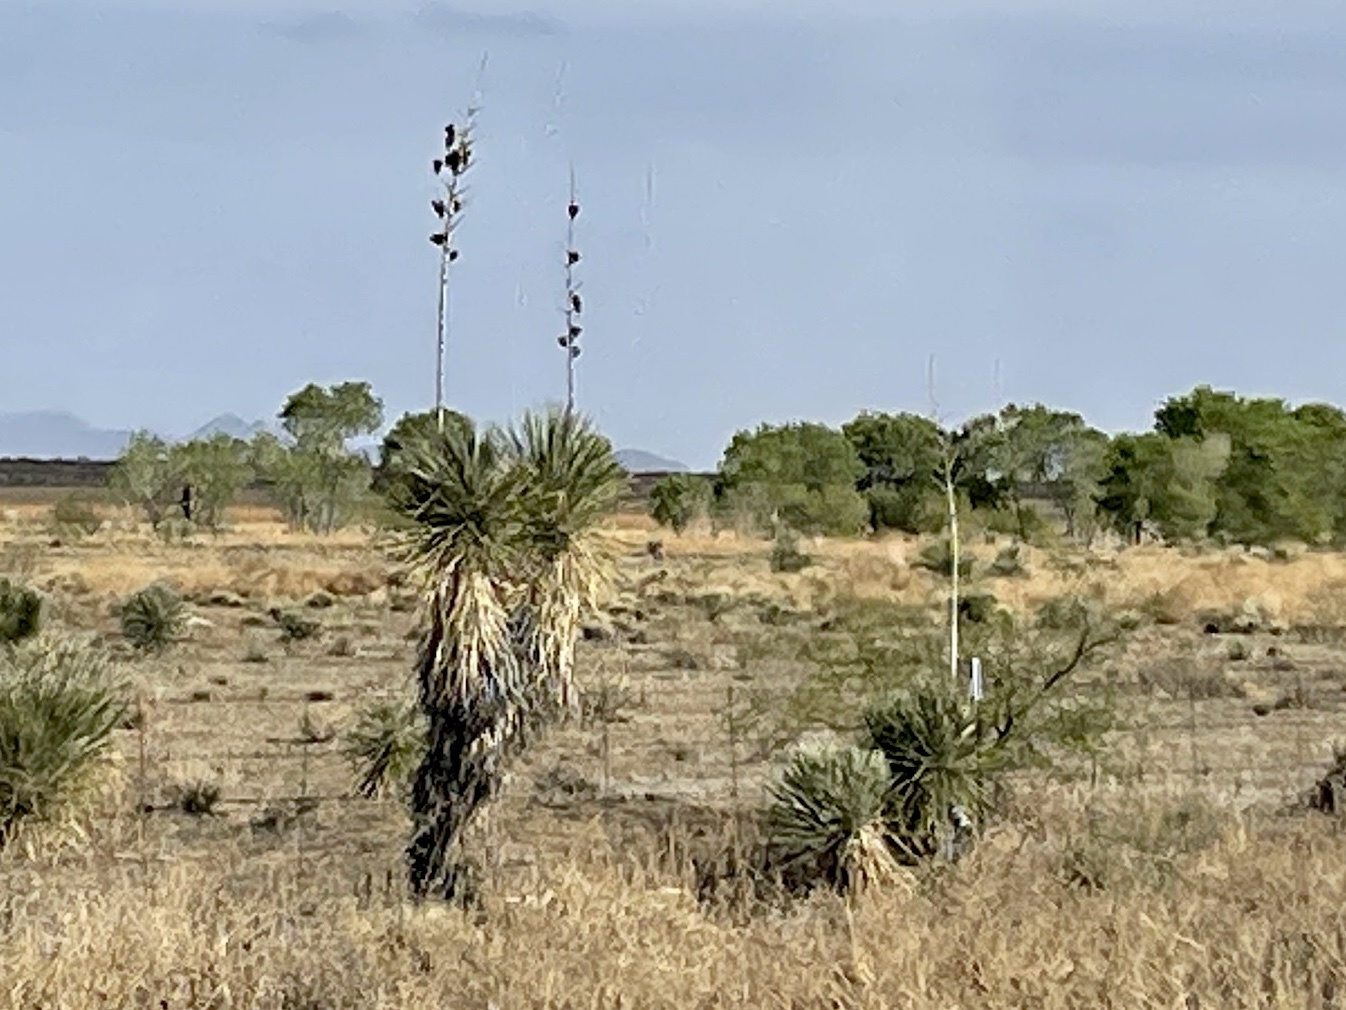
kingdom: Plantae
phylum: Tracheophyta
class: Liliopsida
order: Asparagales
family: Asparagaceae
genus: Yucca
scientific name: Yucca elata
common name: Palmella
